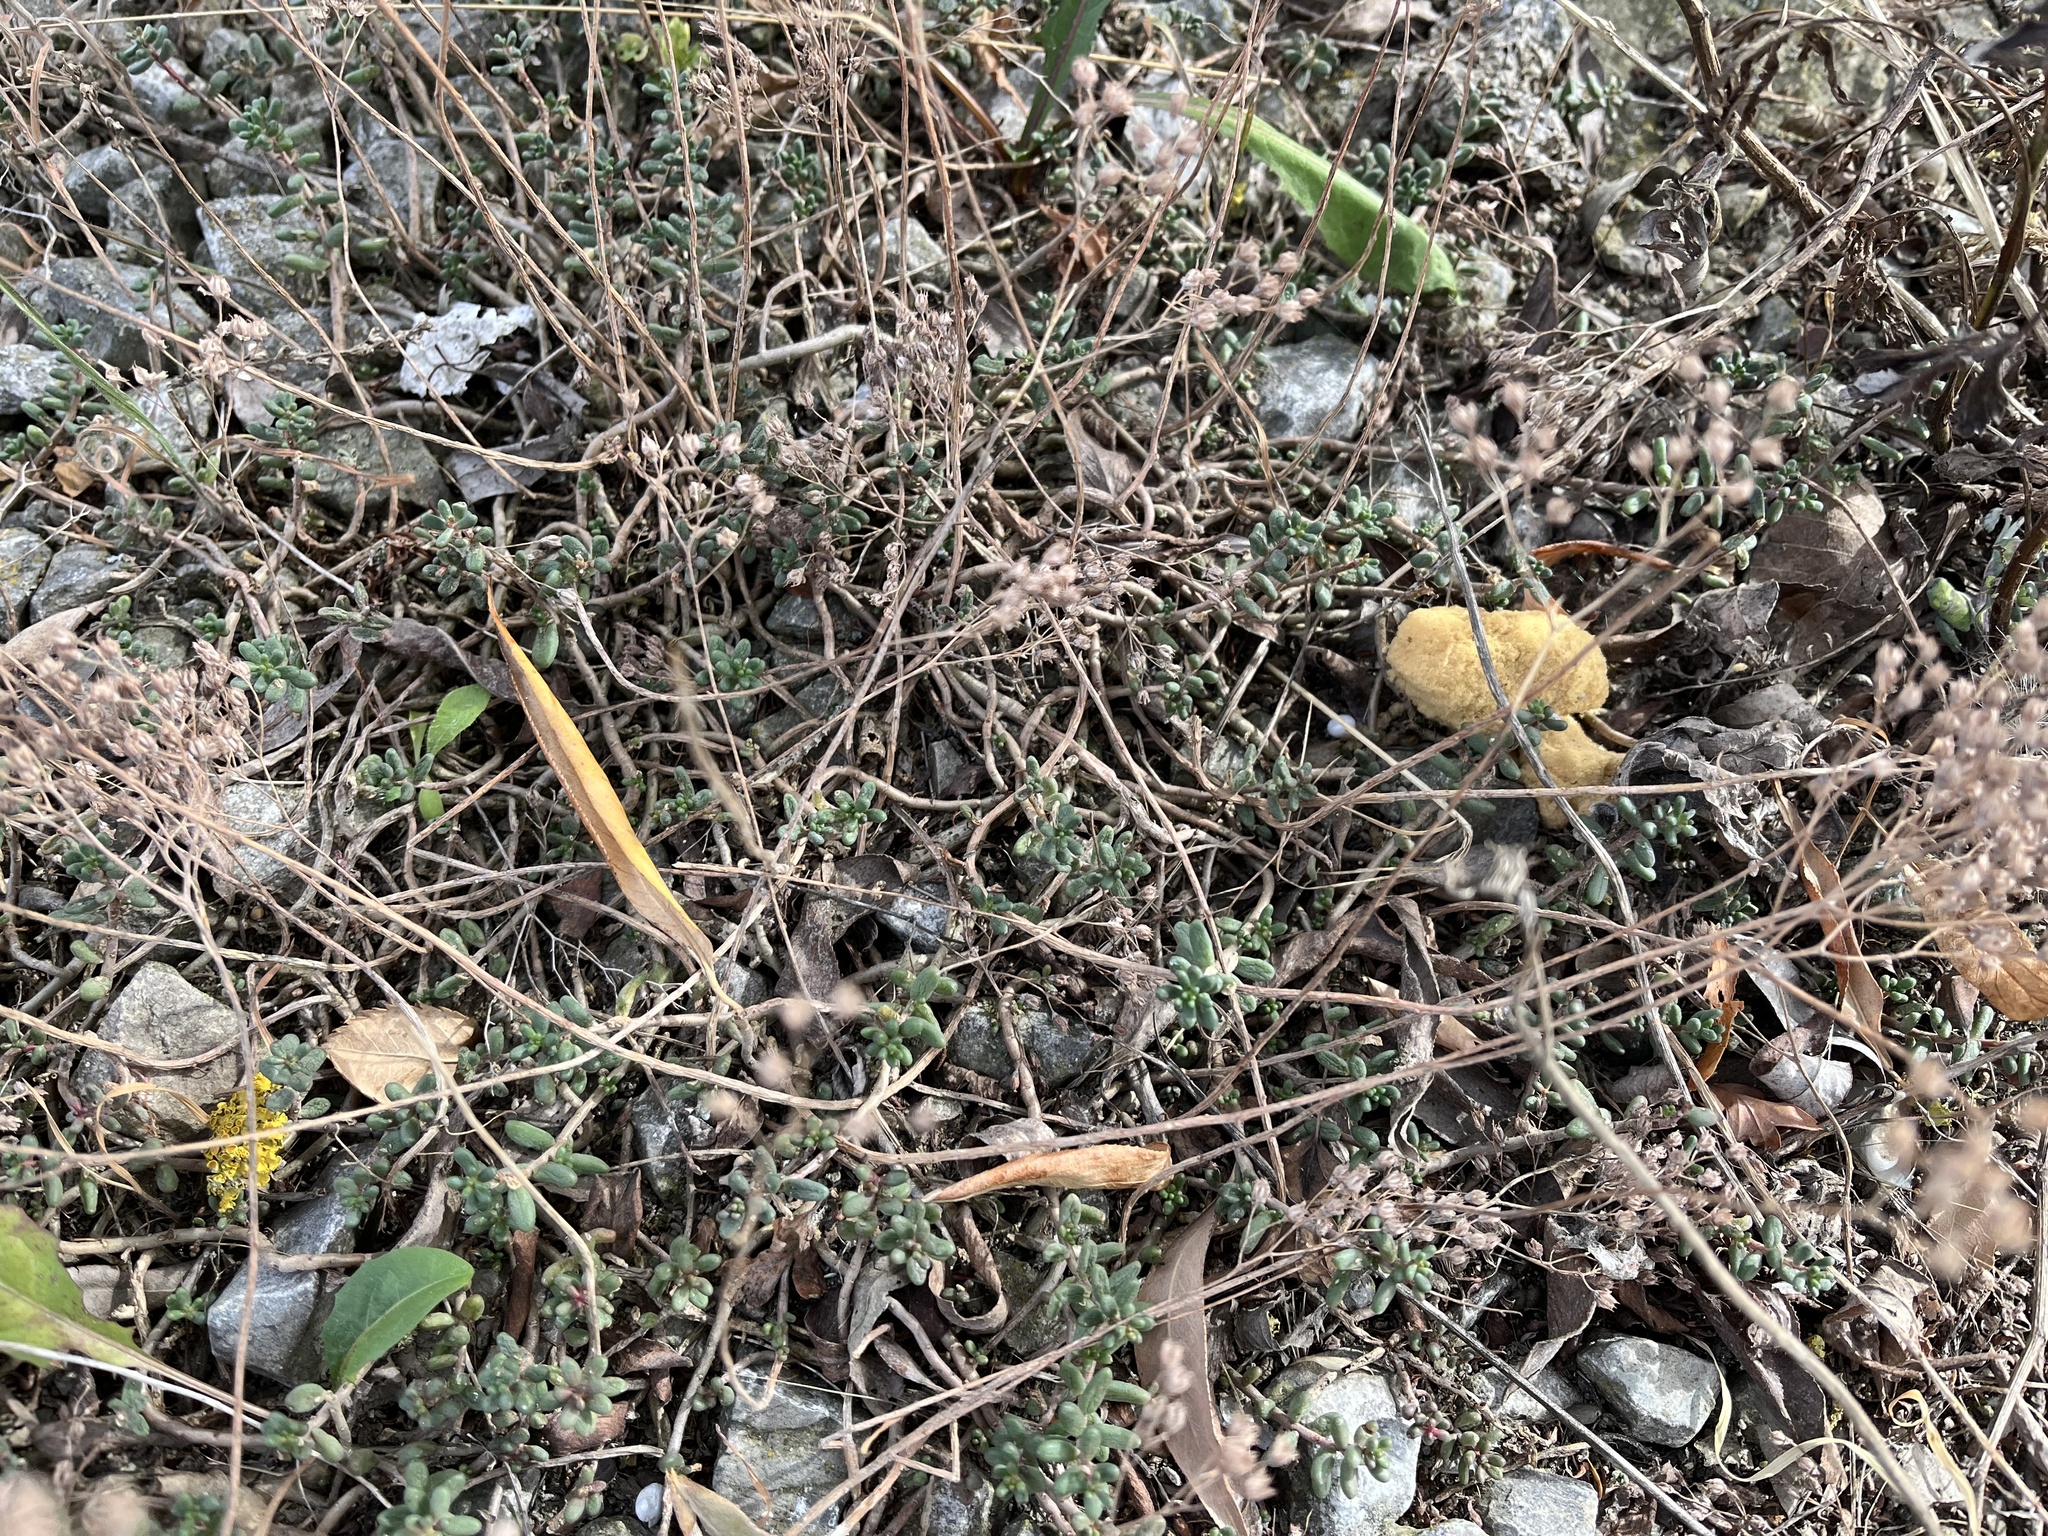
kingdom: Plantae
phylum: Tracheophyta
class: Magnoliopsida
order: Saxifragales
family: Crassulaceae
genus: Sedum
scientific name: Sedum album
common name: White stonecrop
